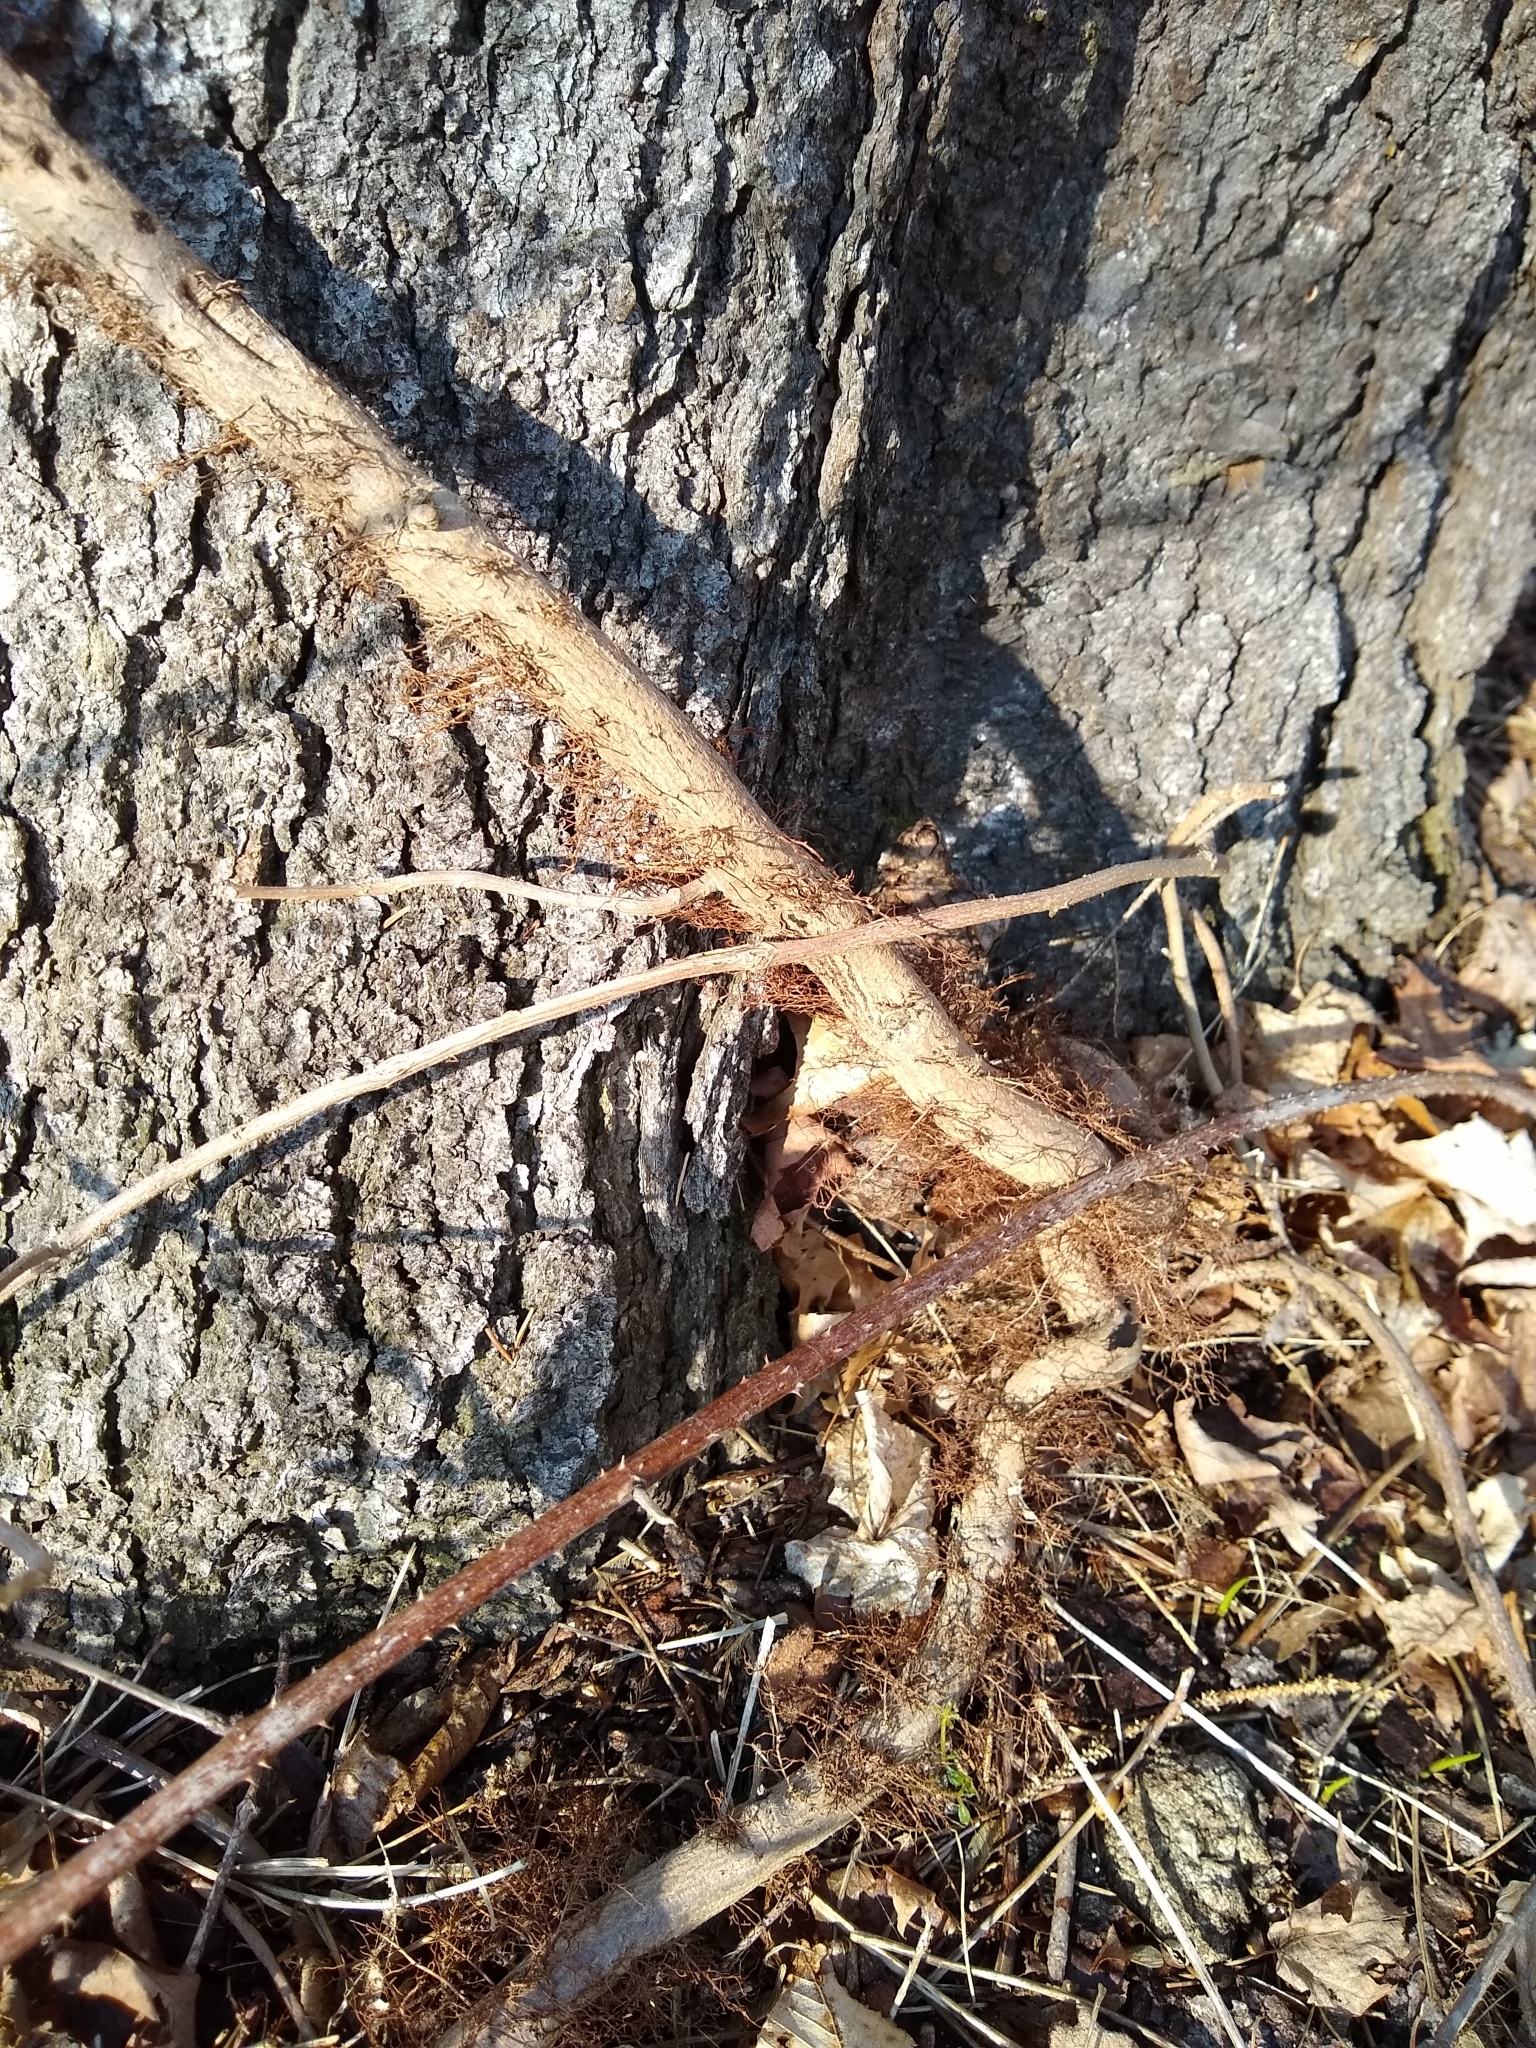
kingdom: Plantae
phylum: Tracheophyta
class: Magnoliopsida
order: Sapindales
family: Anacardiaceae
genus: Toxicodendron
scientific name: Toxicodendron radicans
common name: Poison ivy
